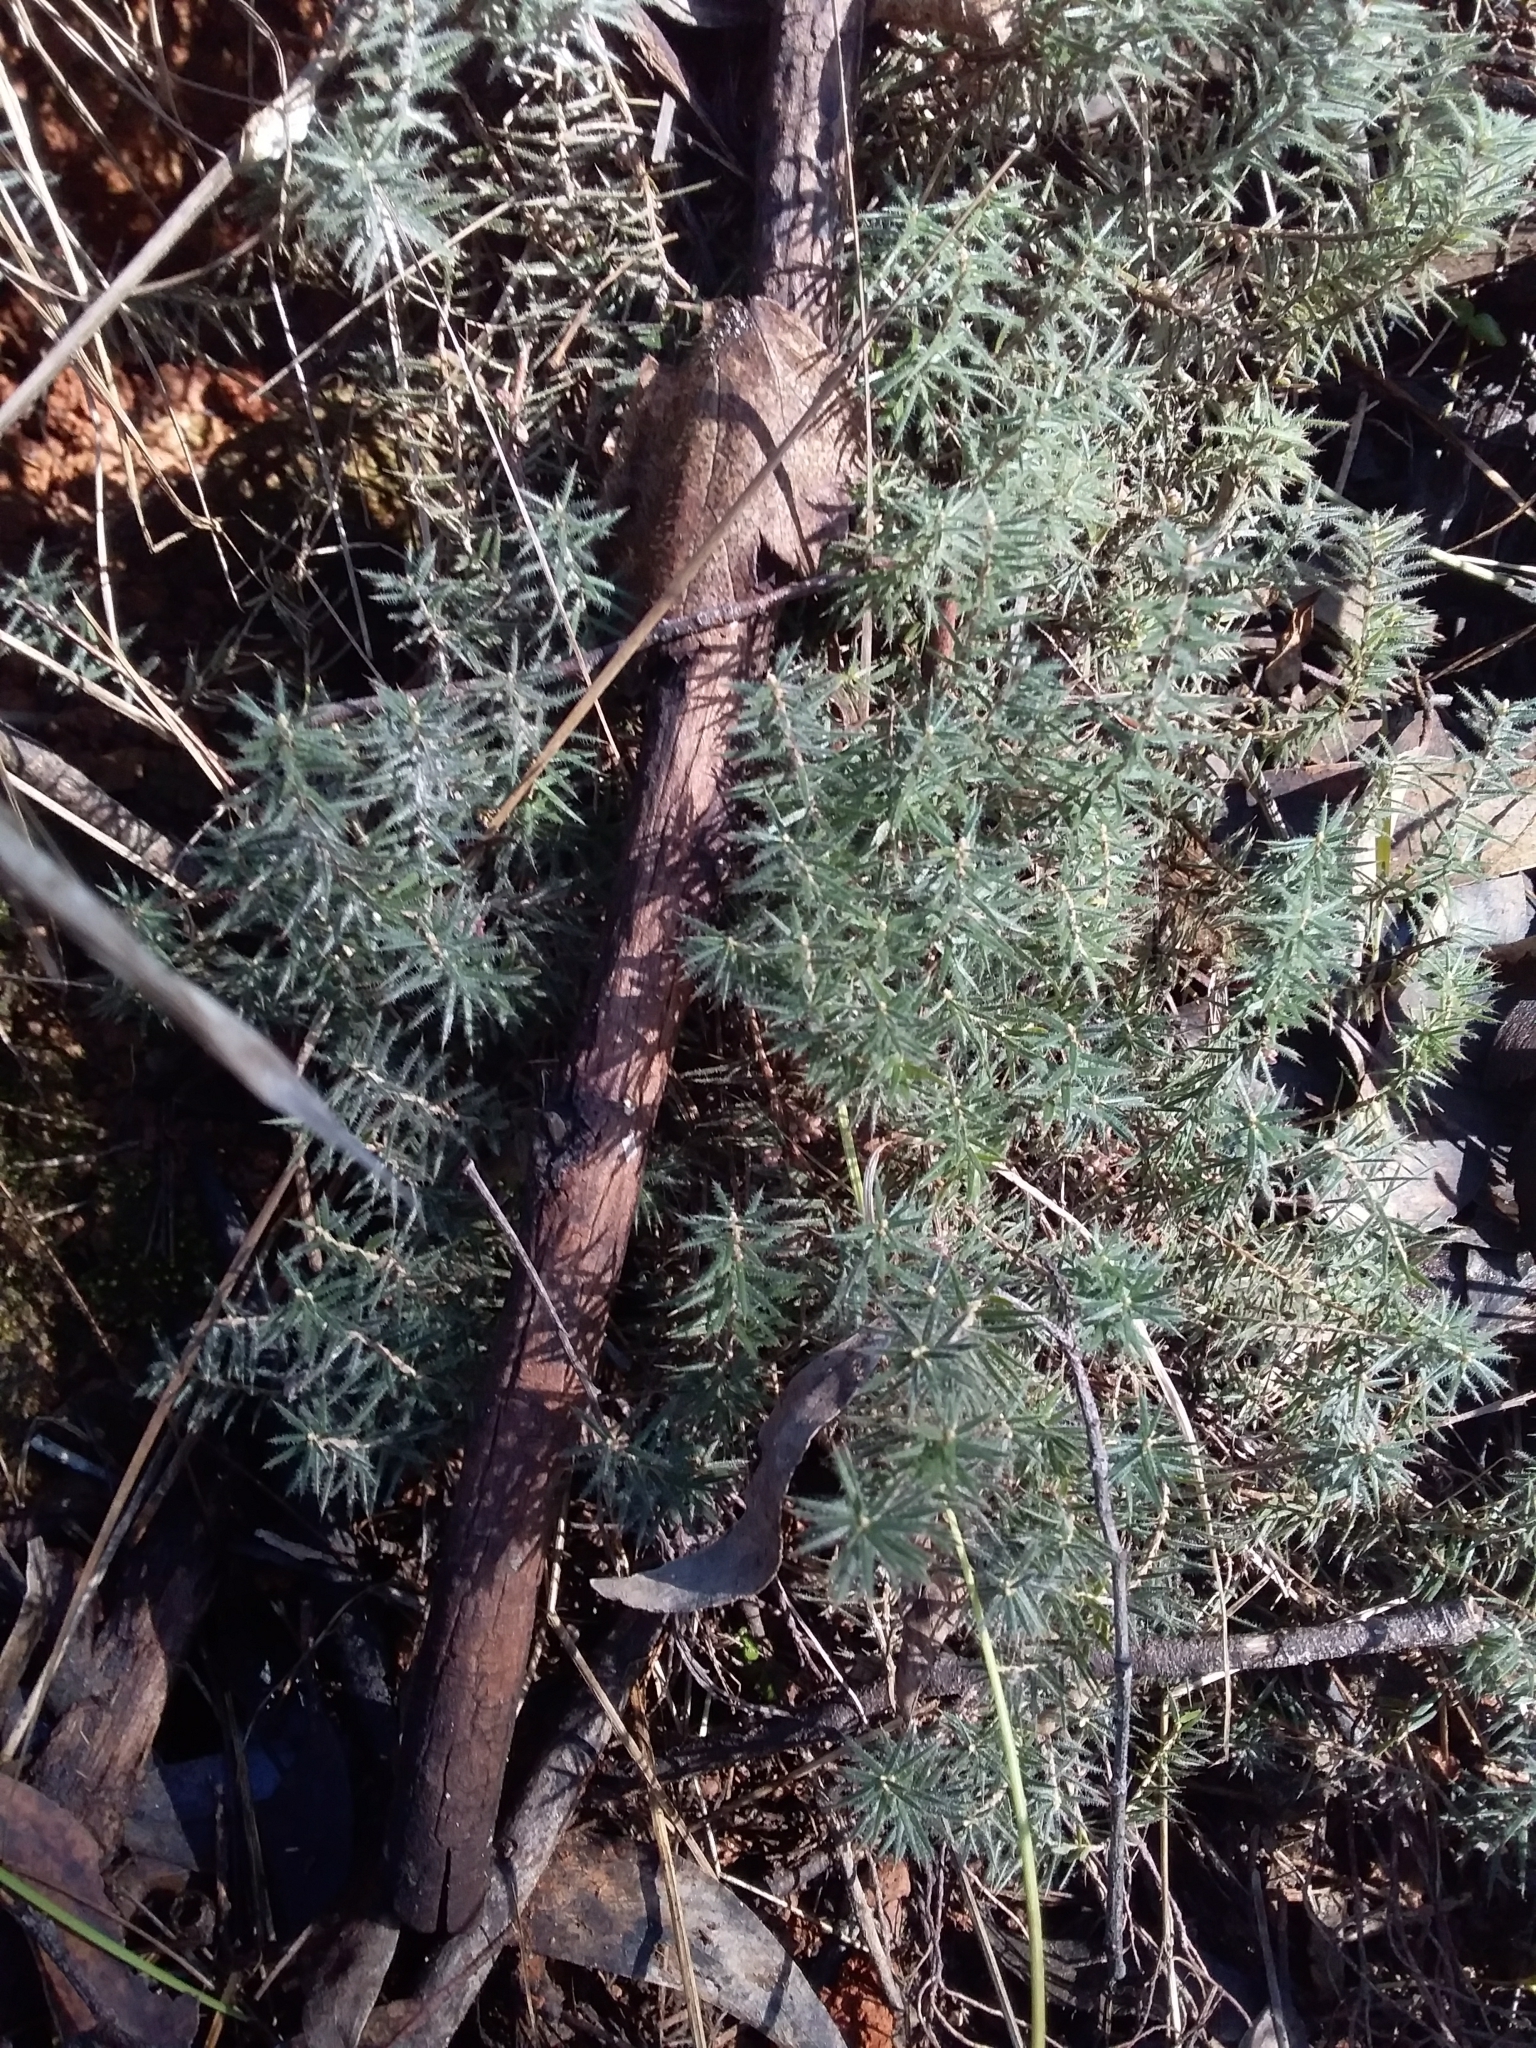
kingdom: Plantae
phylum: Tracheophyta
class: Magnoliopsida
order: Ericales
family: Ericaceae
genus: Acrotriche
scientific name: Acrotriche serrulata
